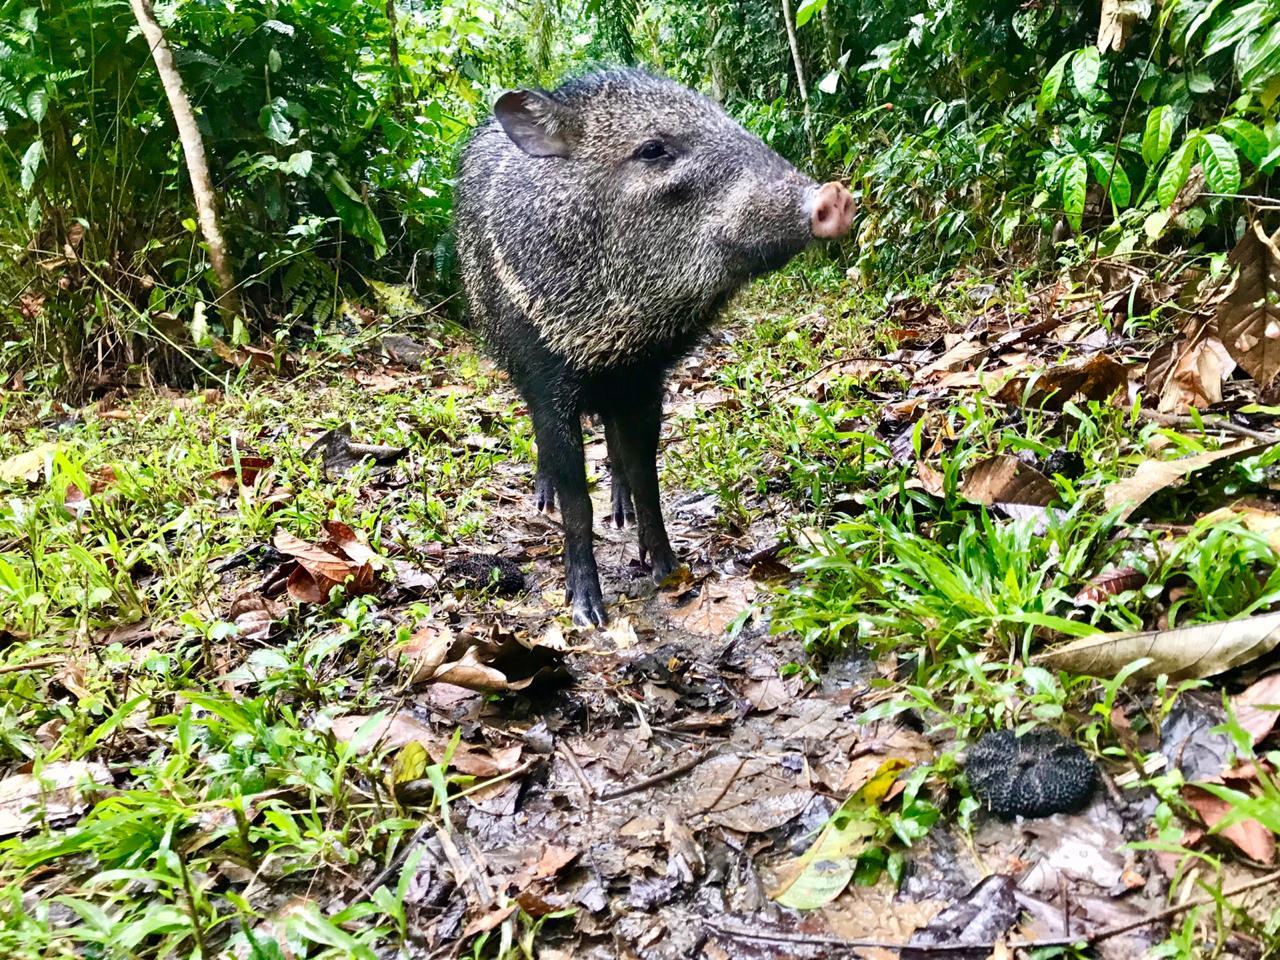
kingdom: Animalia
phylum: Chordata
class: Mammalia
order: Artiodactyla
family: Tayassuidae
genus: Pecari
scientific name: Pecari tajacu
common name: Collared peccary
